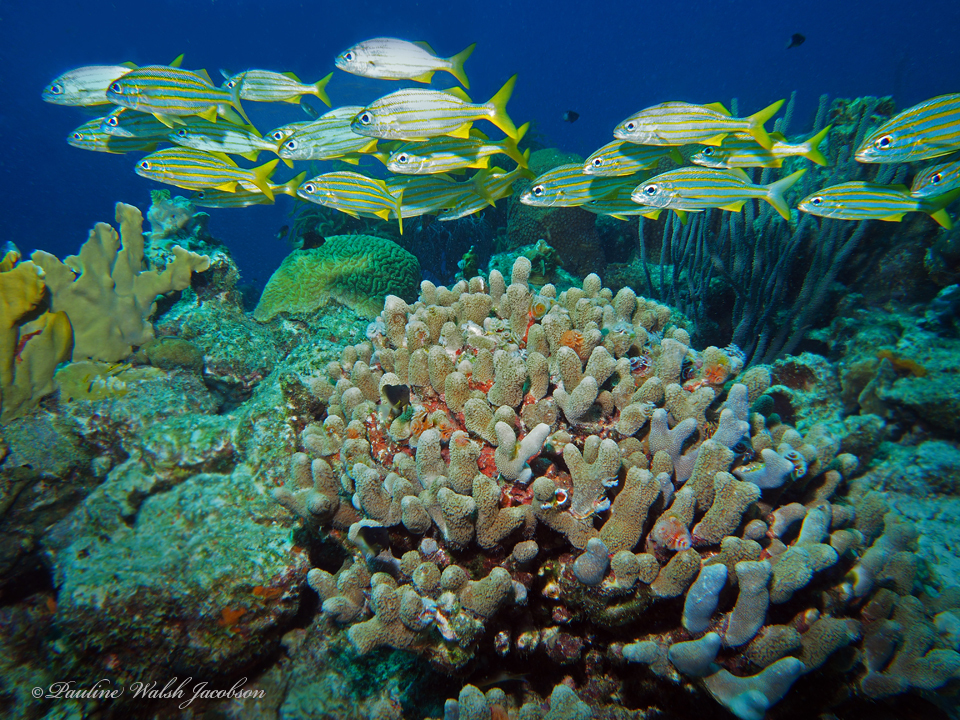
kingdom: Animalia
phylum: Chordata
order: Perciformes
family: Haemulidae
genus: Haemulon
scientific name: Haemulon chrysargyreum
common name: Smallmouth grunt
